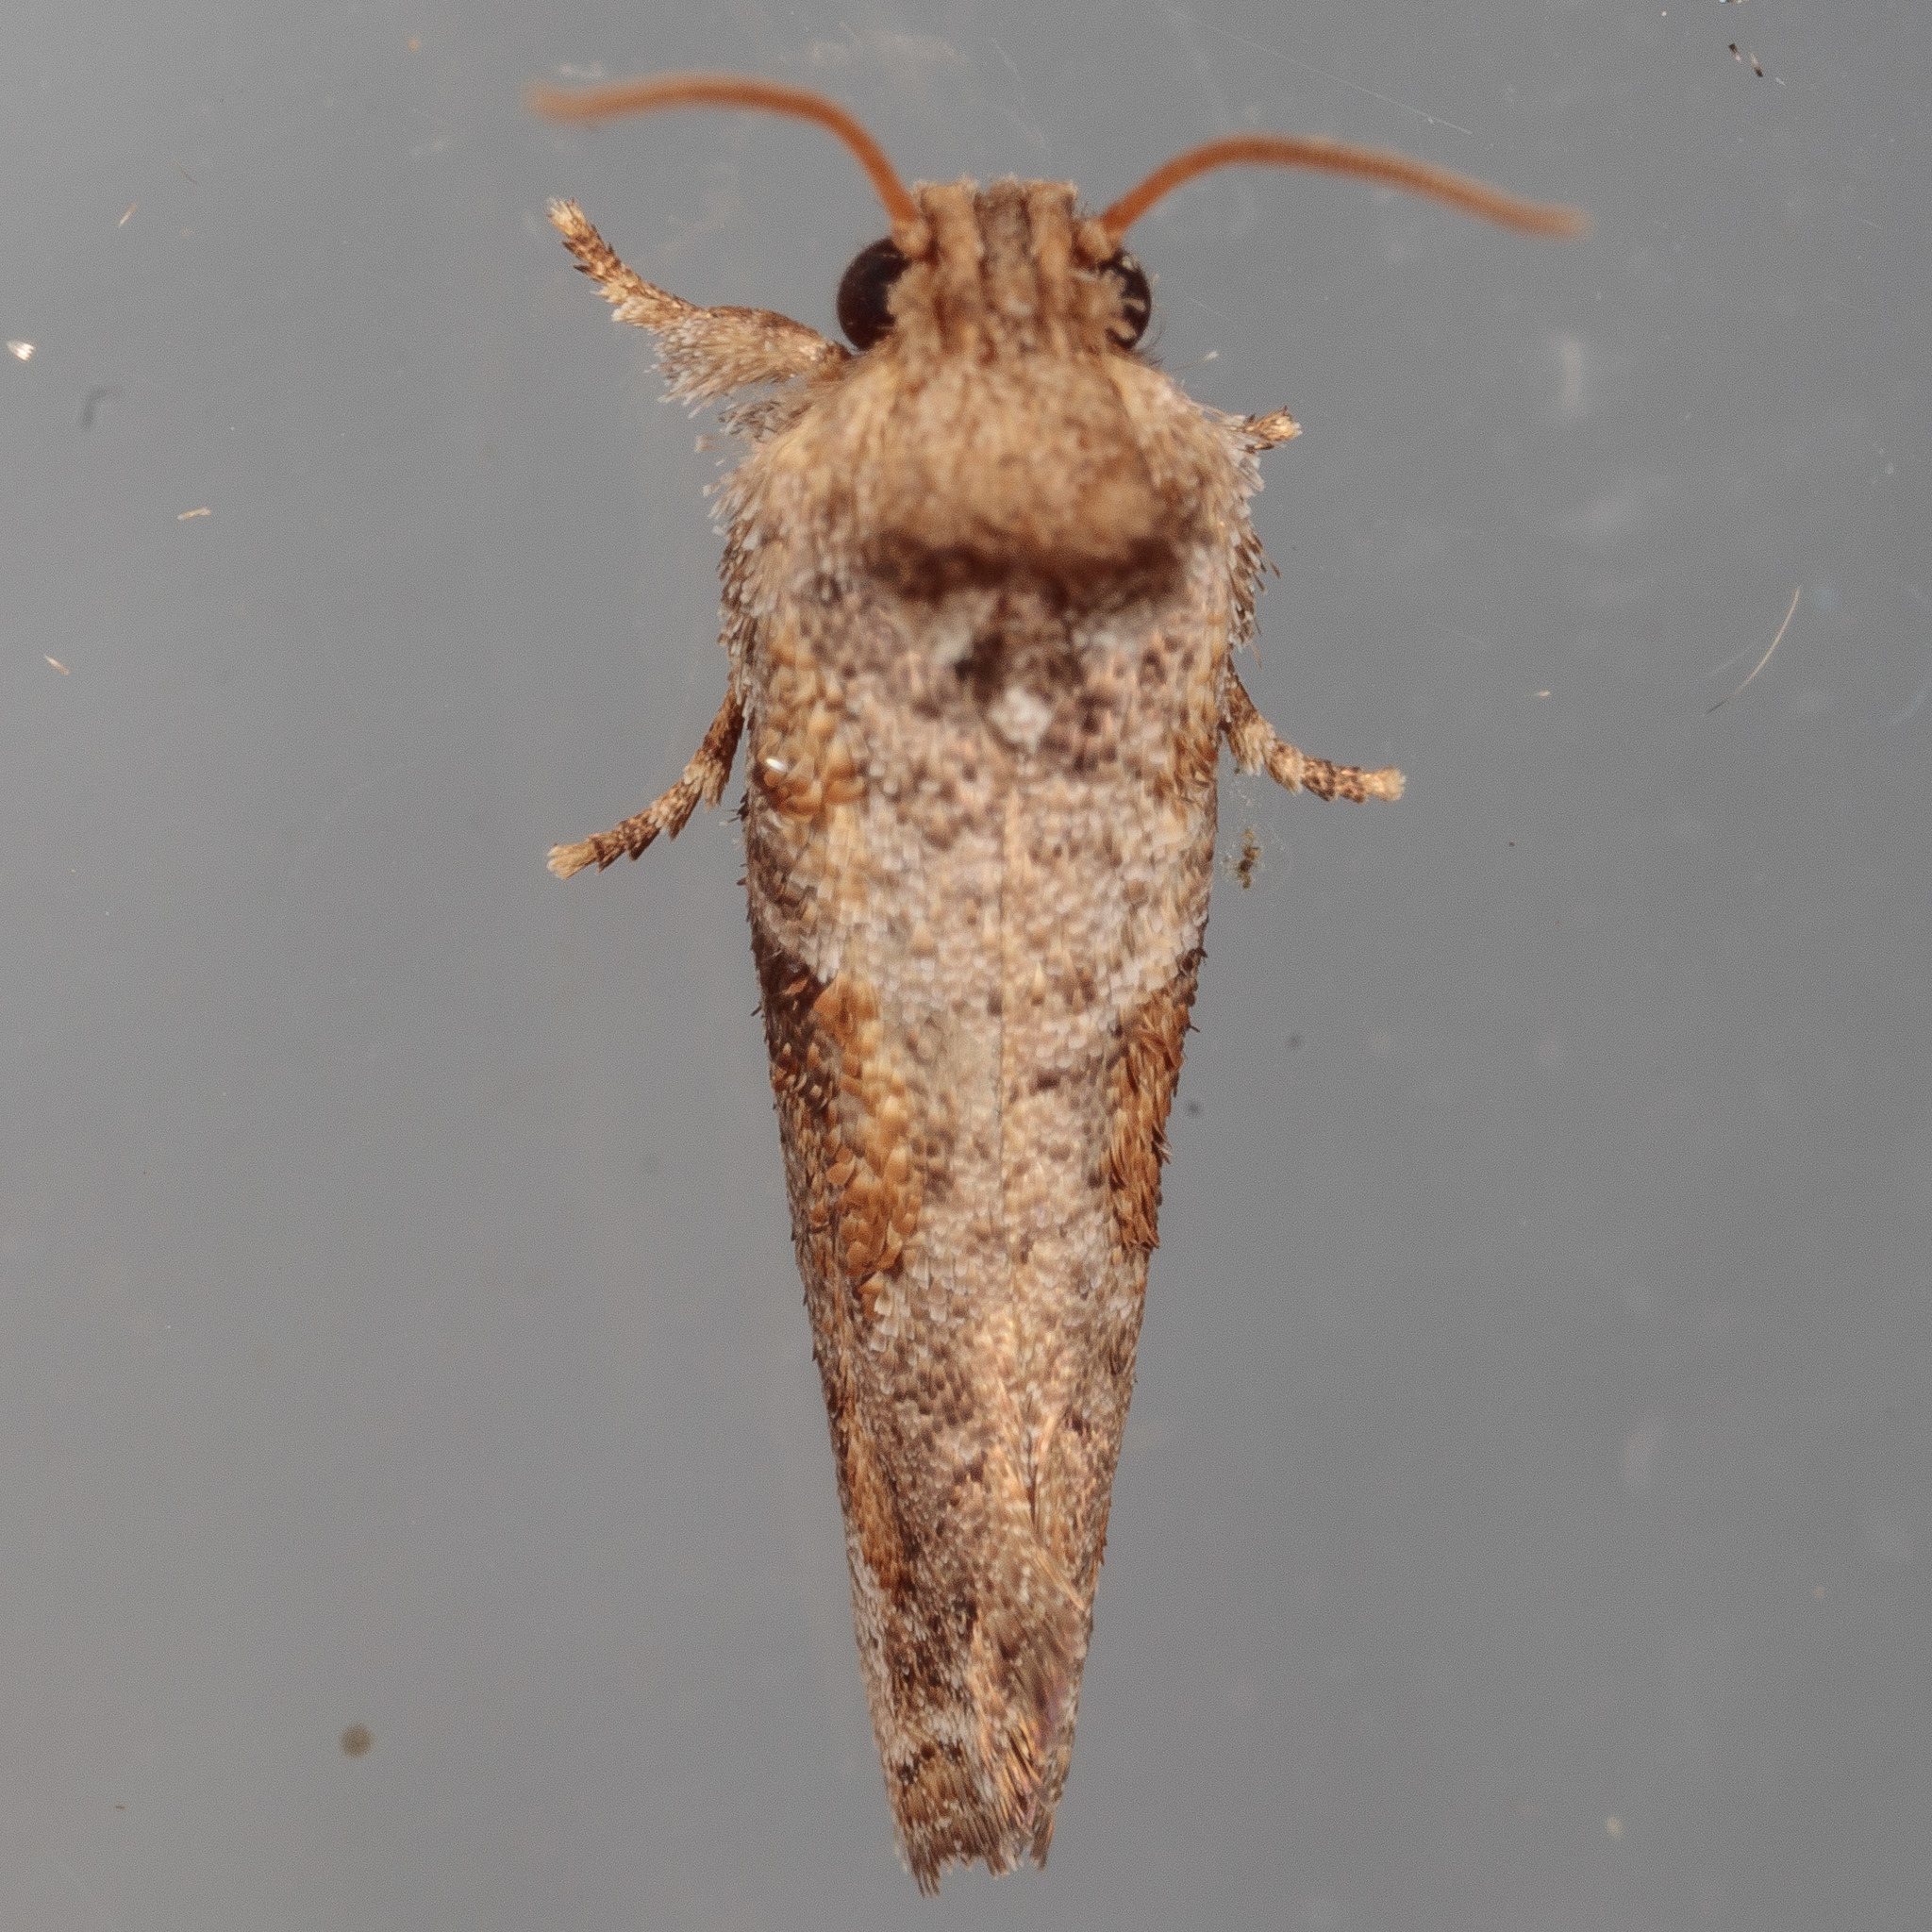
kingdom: Animalia
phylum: Arthropoda
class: Insecta
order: Lepidoptera
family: Tineidae
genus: Acrolophus
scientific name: Acrolophus piger
